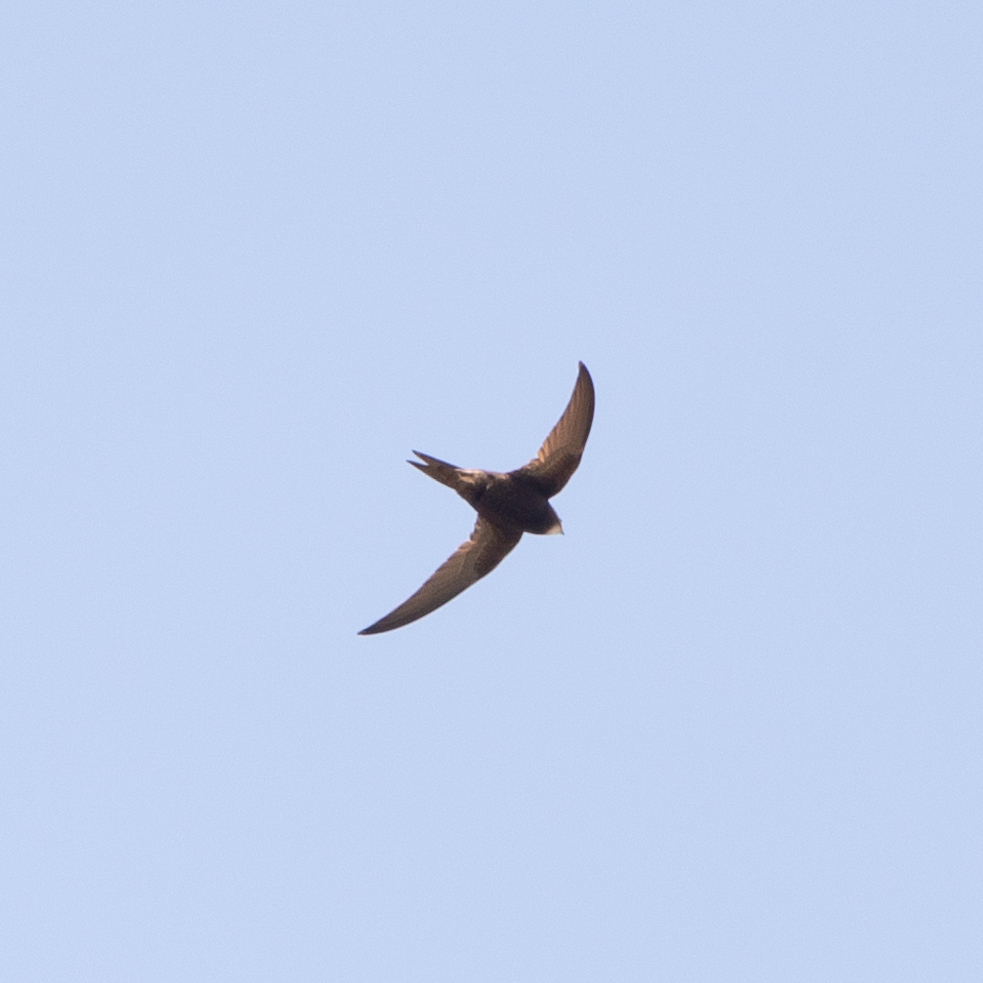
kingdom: Animalia
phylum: Chordata
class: Aves
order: Apodiformes
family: Apodidae
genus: Apus
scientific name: Apus apus
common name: Common swift
